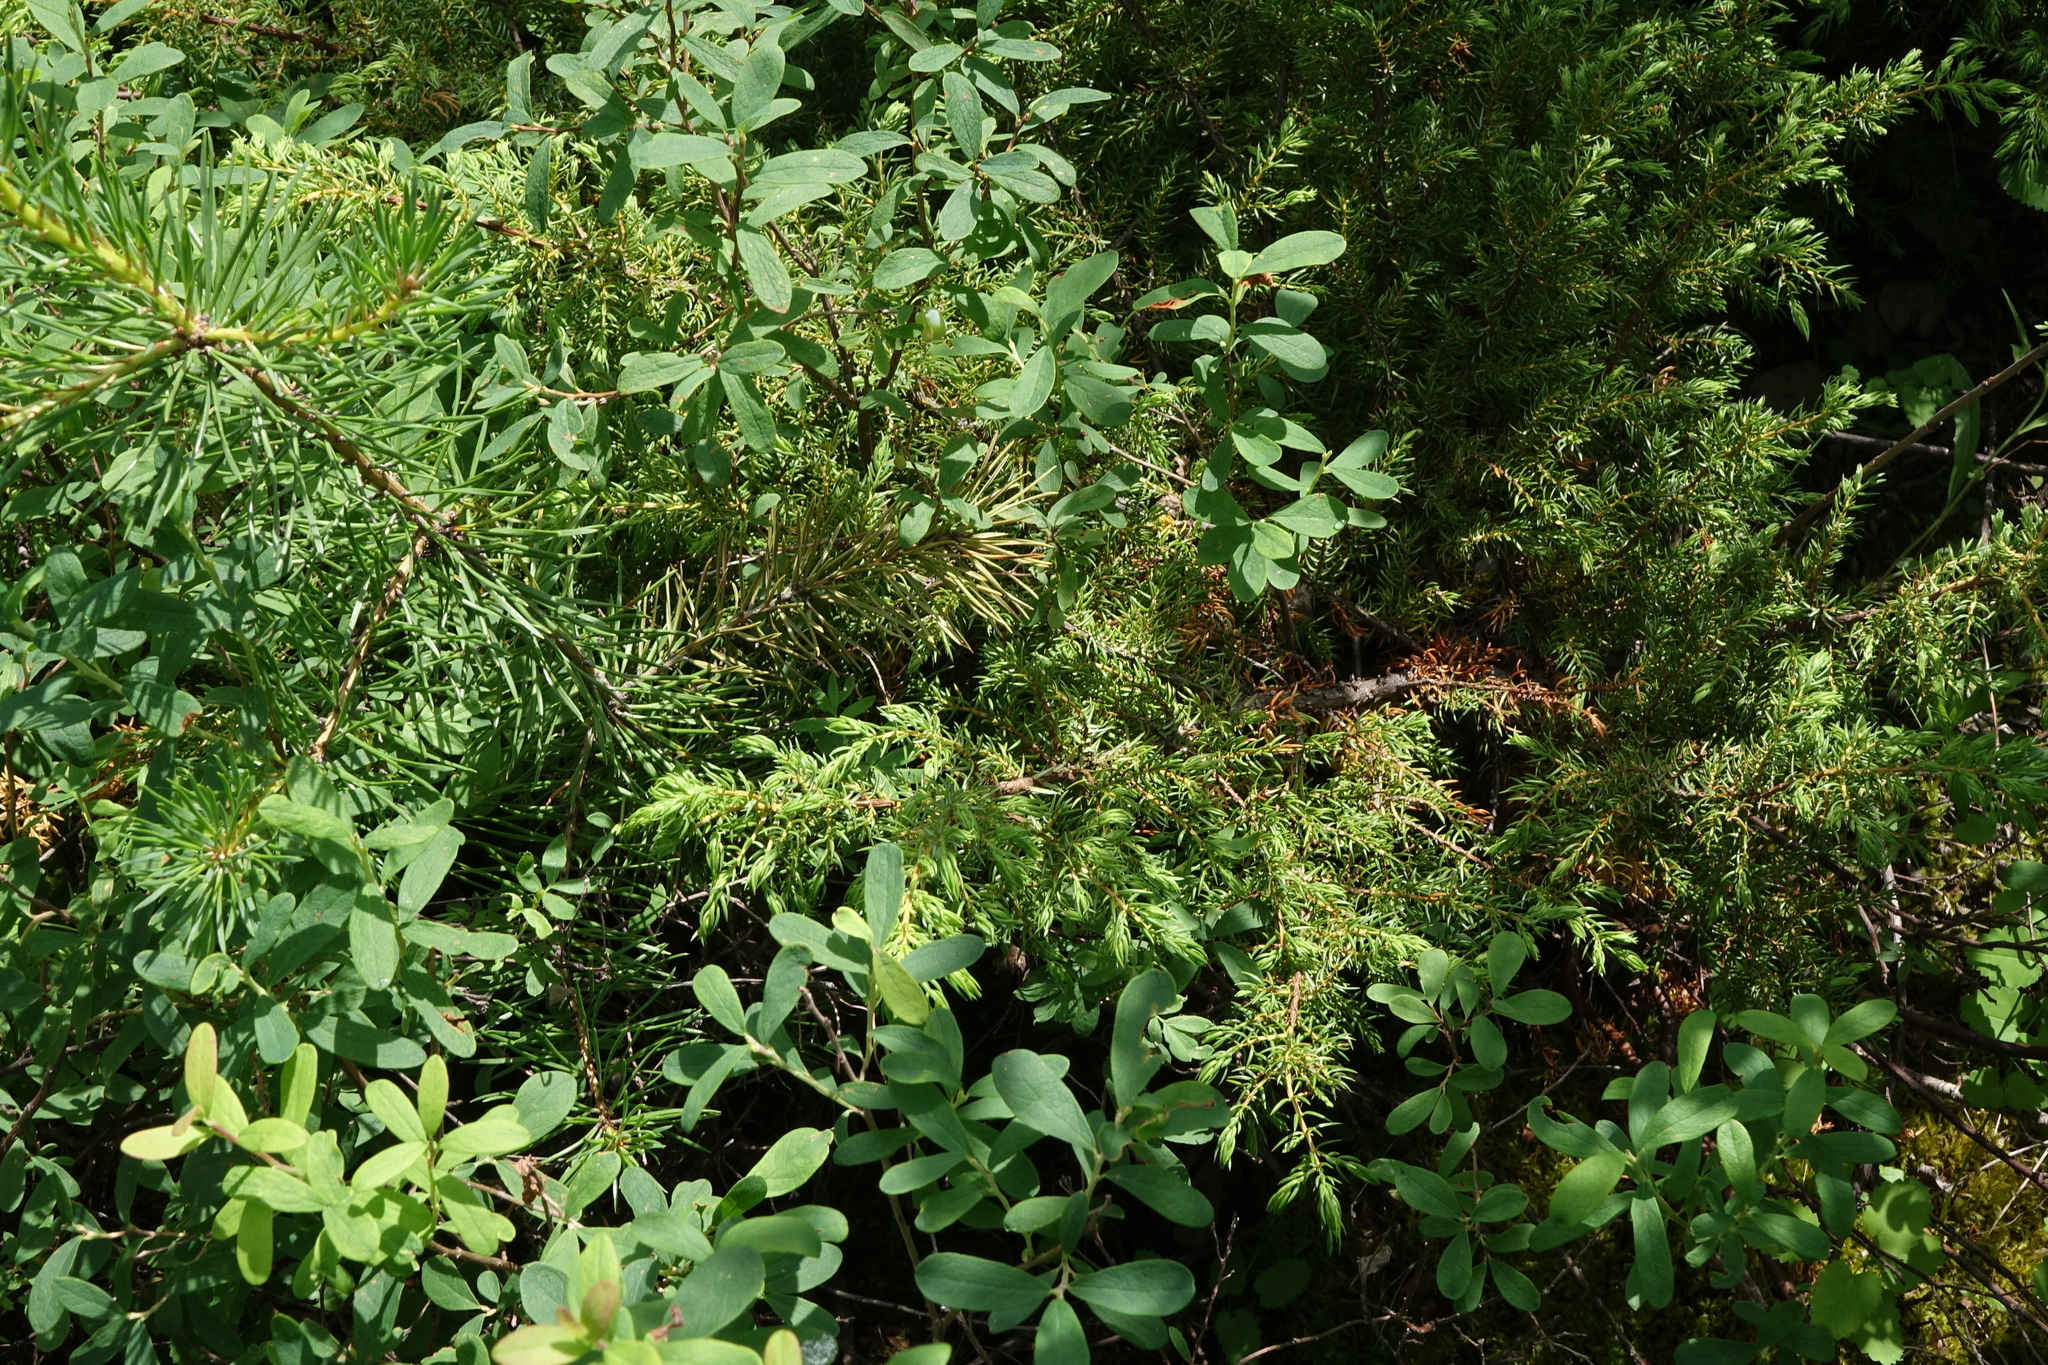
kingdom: Plantae
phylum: Tracheophyta
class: Magnoliopsida
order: Ericales
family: Ericaceae
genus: Vaccinium
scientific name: Vaccinium uliginosum
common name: Bog bilberry
